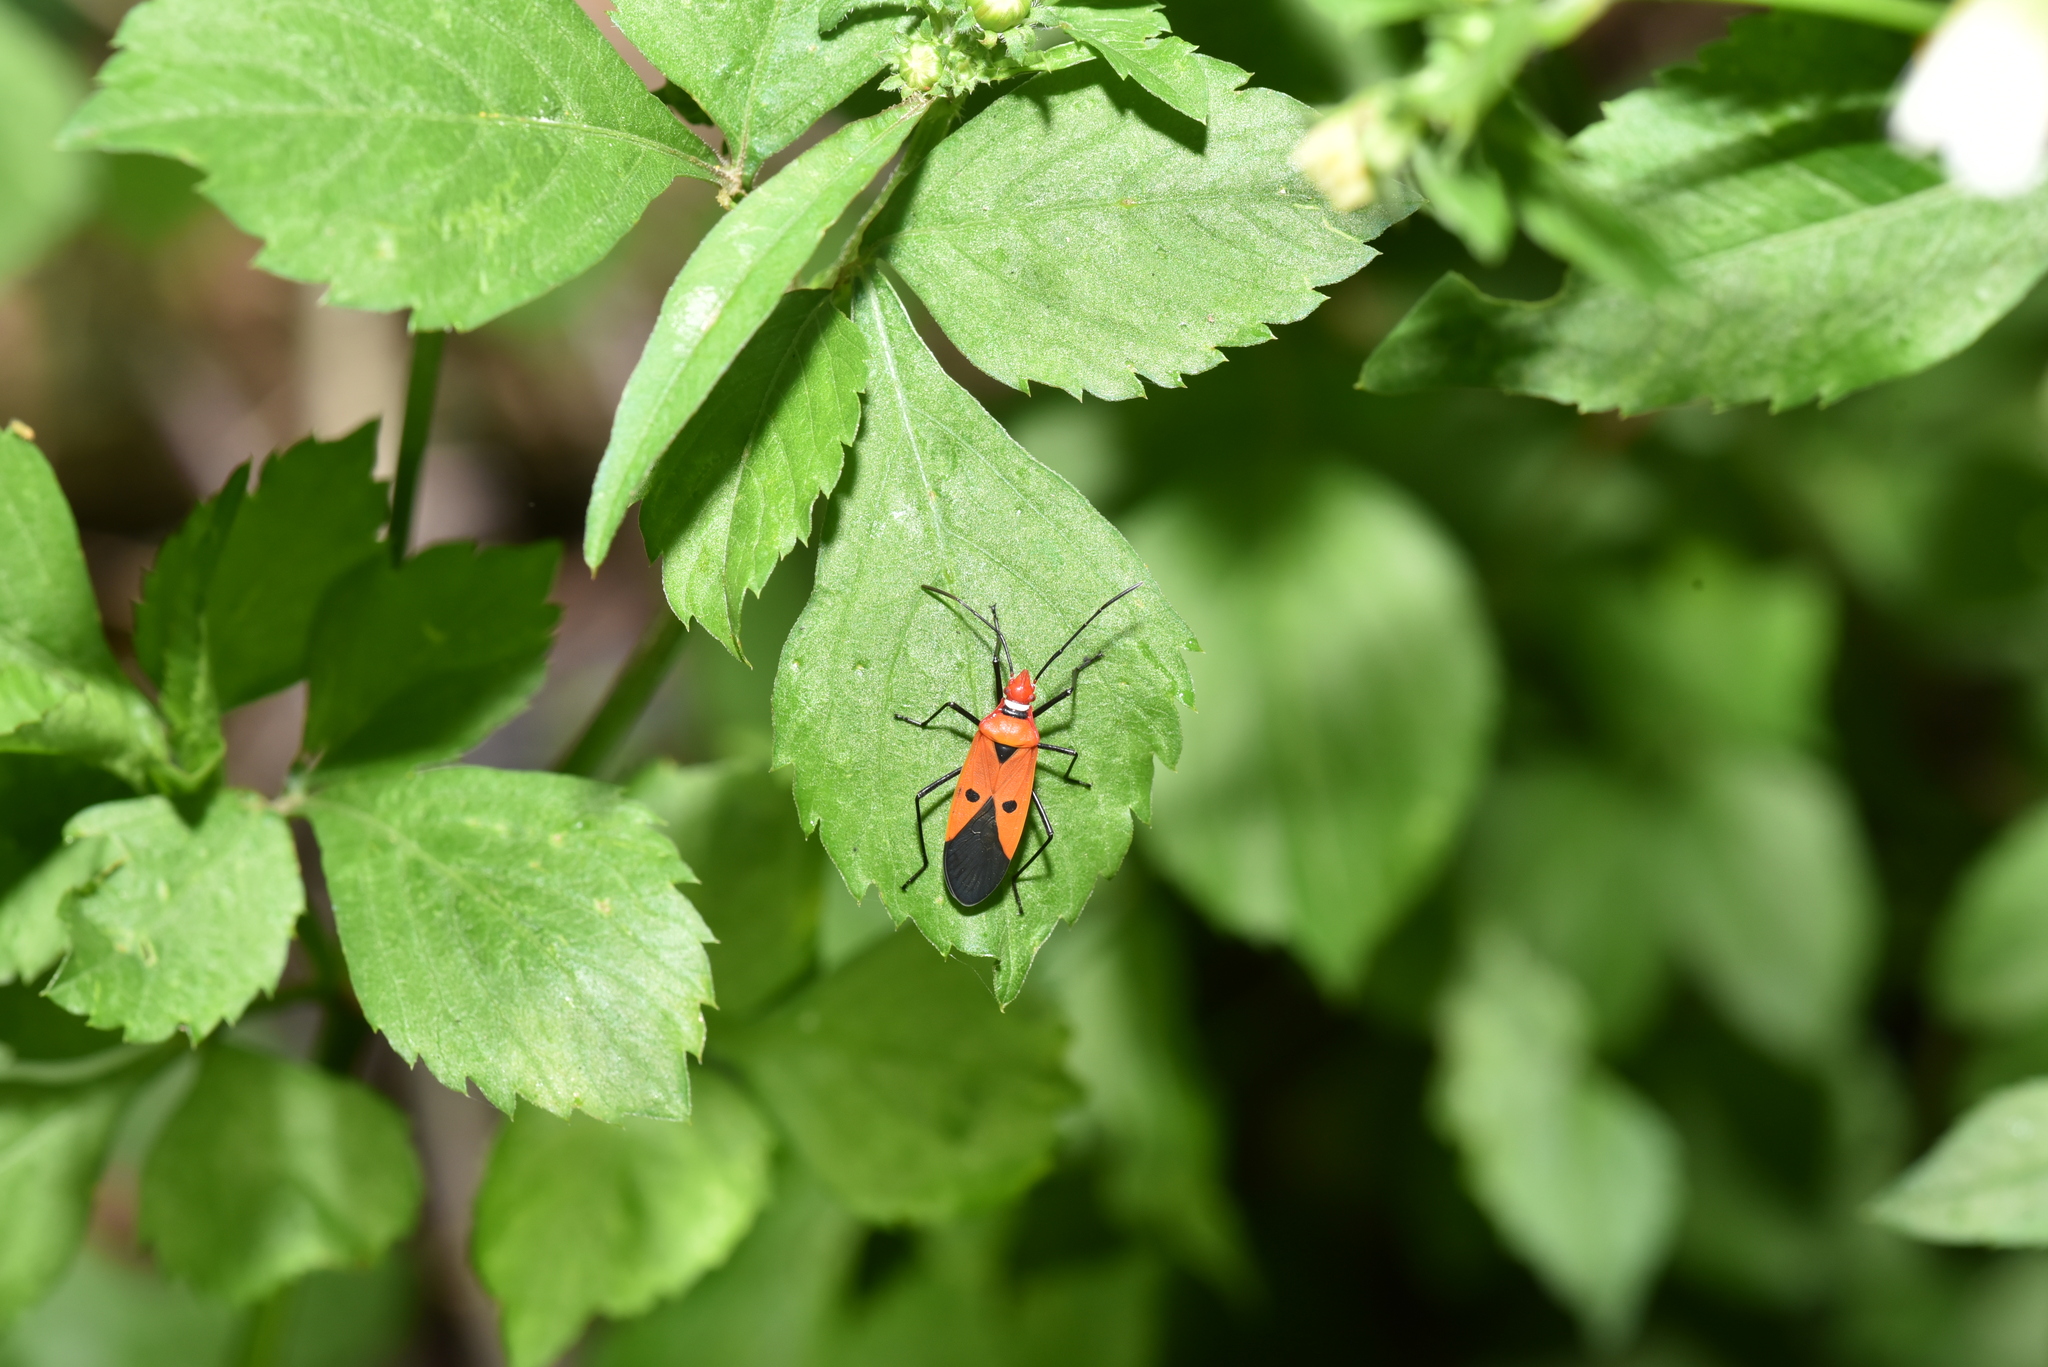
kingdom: Animalia
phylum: Arthropoda
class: Insecta
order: Hemiptera
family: Pyrrhocoridae
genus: Dysdercus
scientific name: Dysdercus cingulatus
